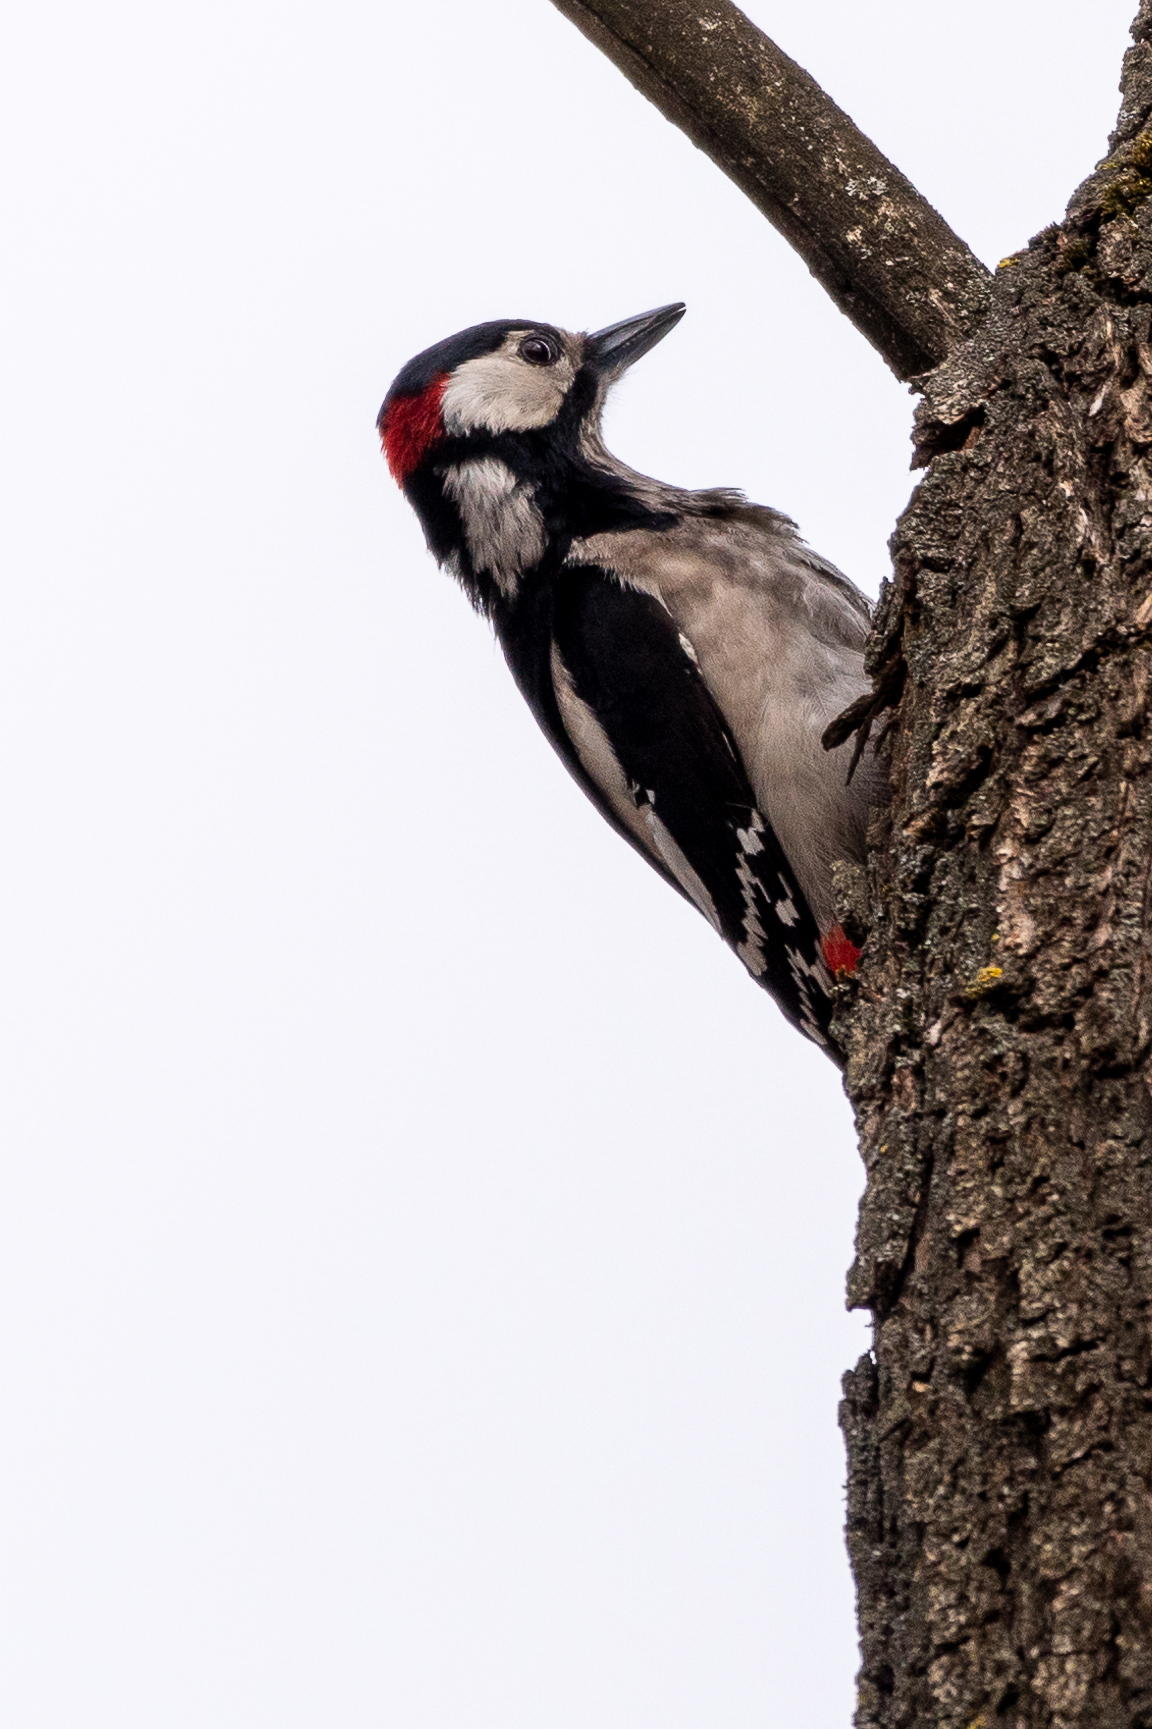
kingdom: Animalia
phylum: Chordata
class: Aves
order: Piciformes
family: Picidae
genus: Dendrocopos
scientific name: Dendrocopos major
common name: Great spotted woodpecker
